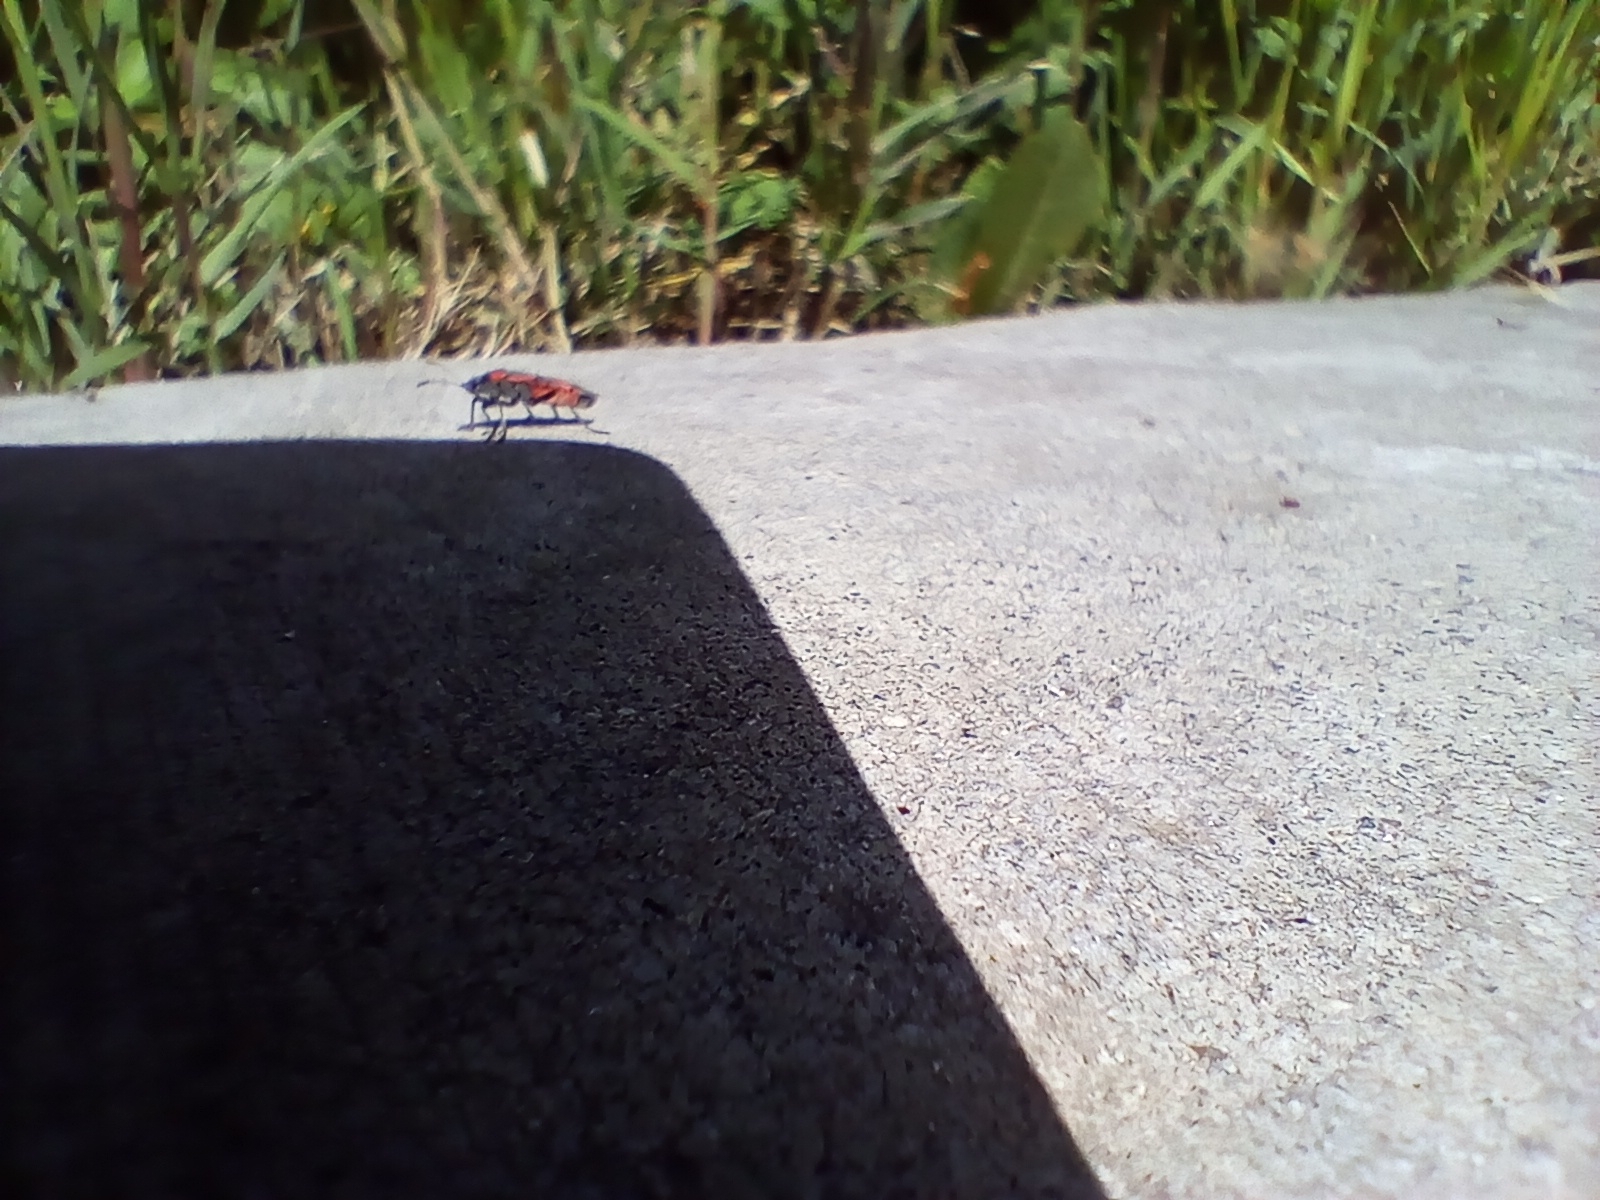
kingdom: Animalia
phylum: Arthropoda
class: Insecta
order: Hemiptera
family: Lygaeidae
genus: Lygaeus
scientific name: Lygaeus kalmii
